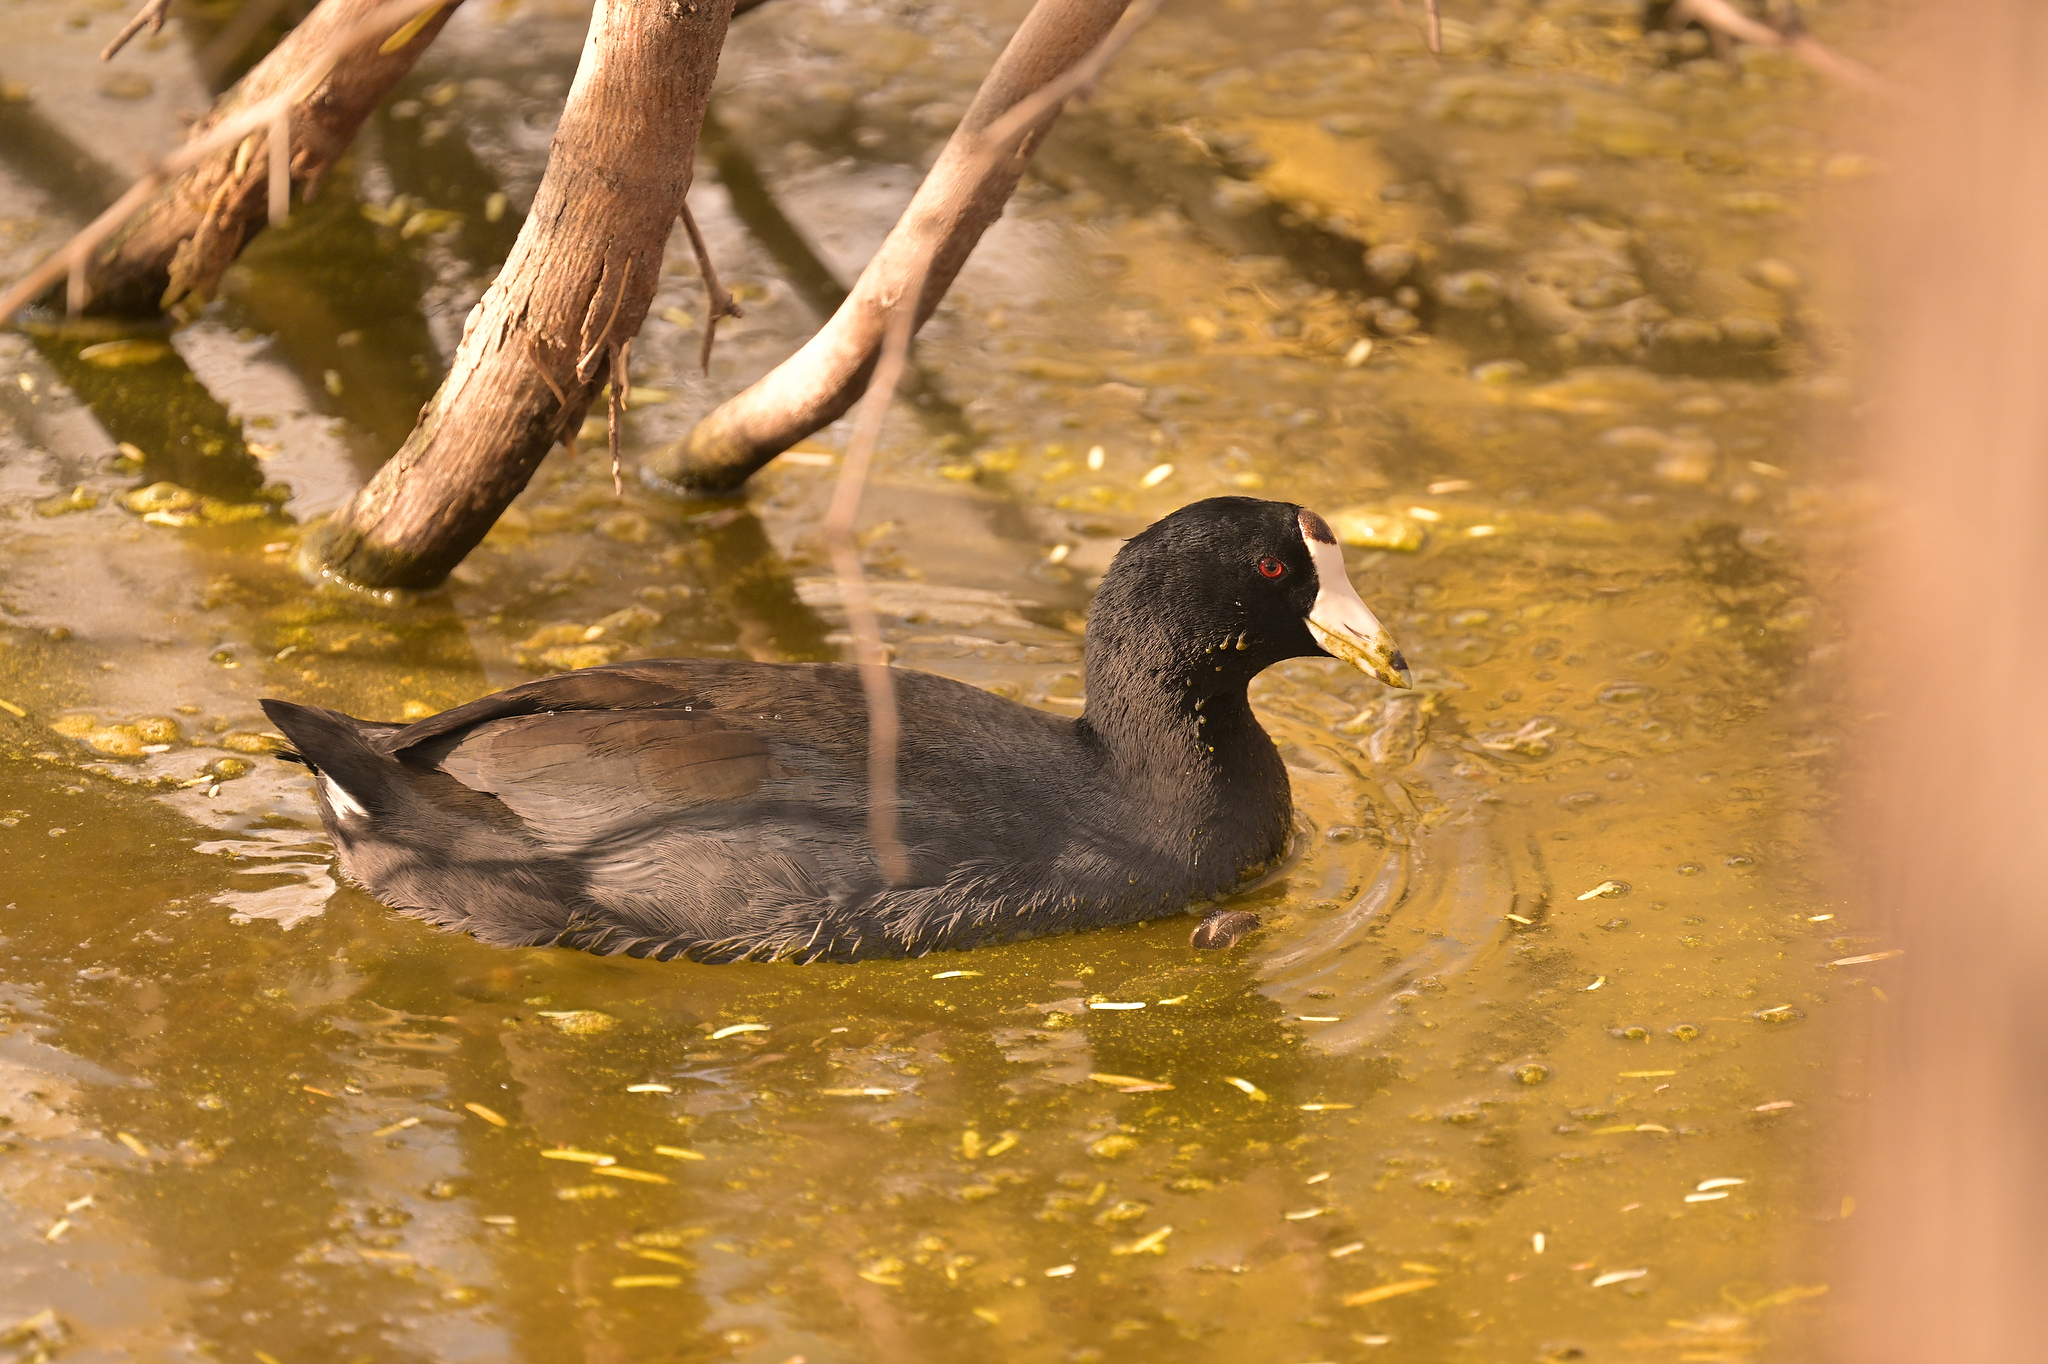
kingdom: Animalia
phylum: Chordata
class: Aves
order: Gruiformes
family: Rallidae
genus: Fulica
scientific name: Fulica americana
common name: American coot
